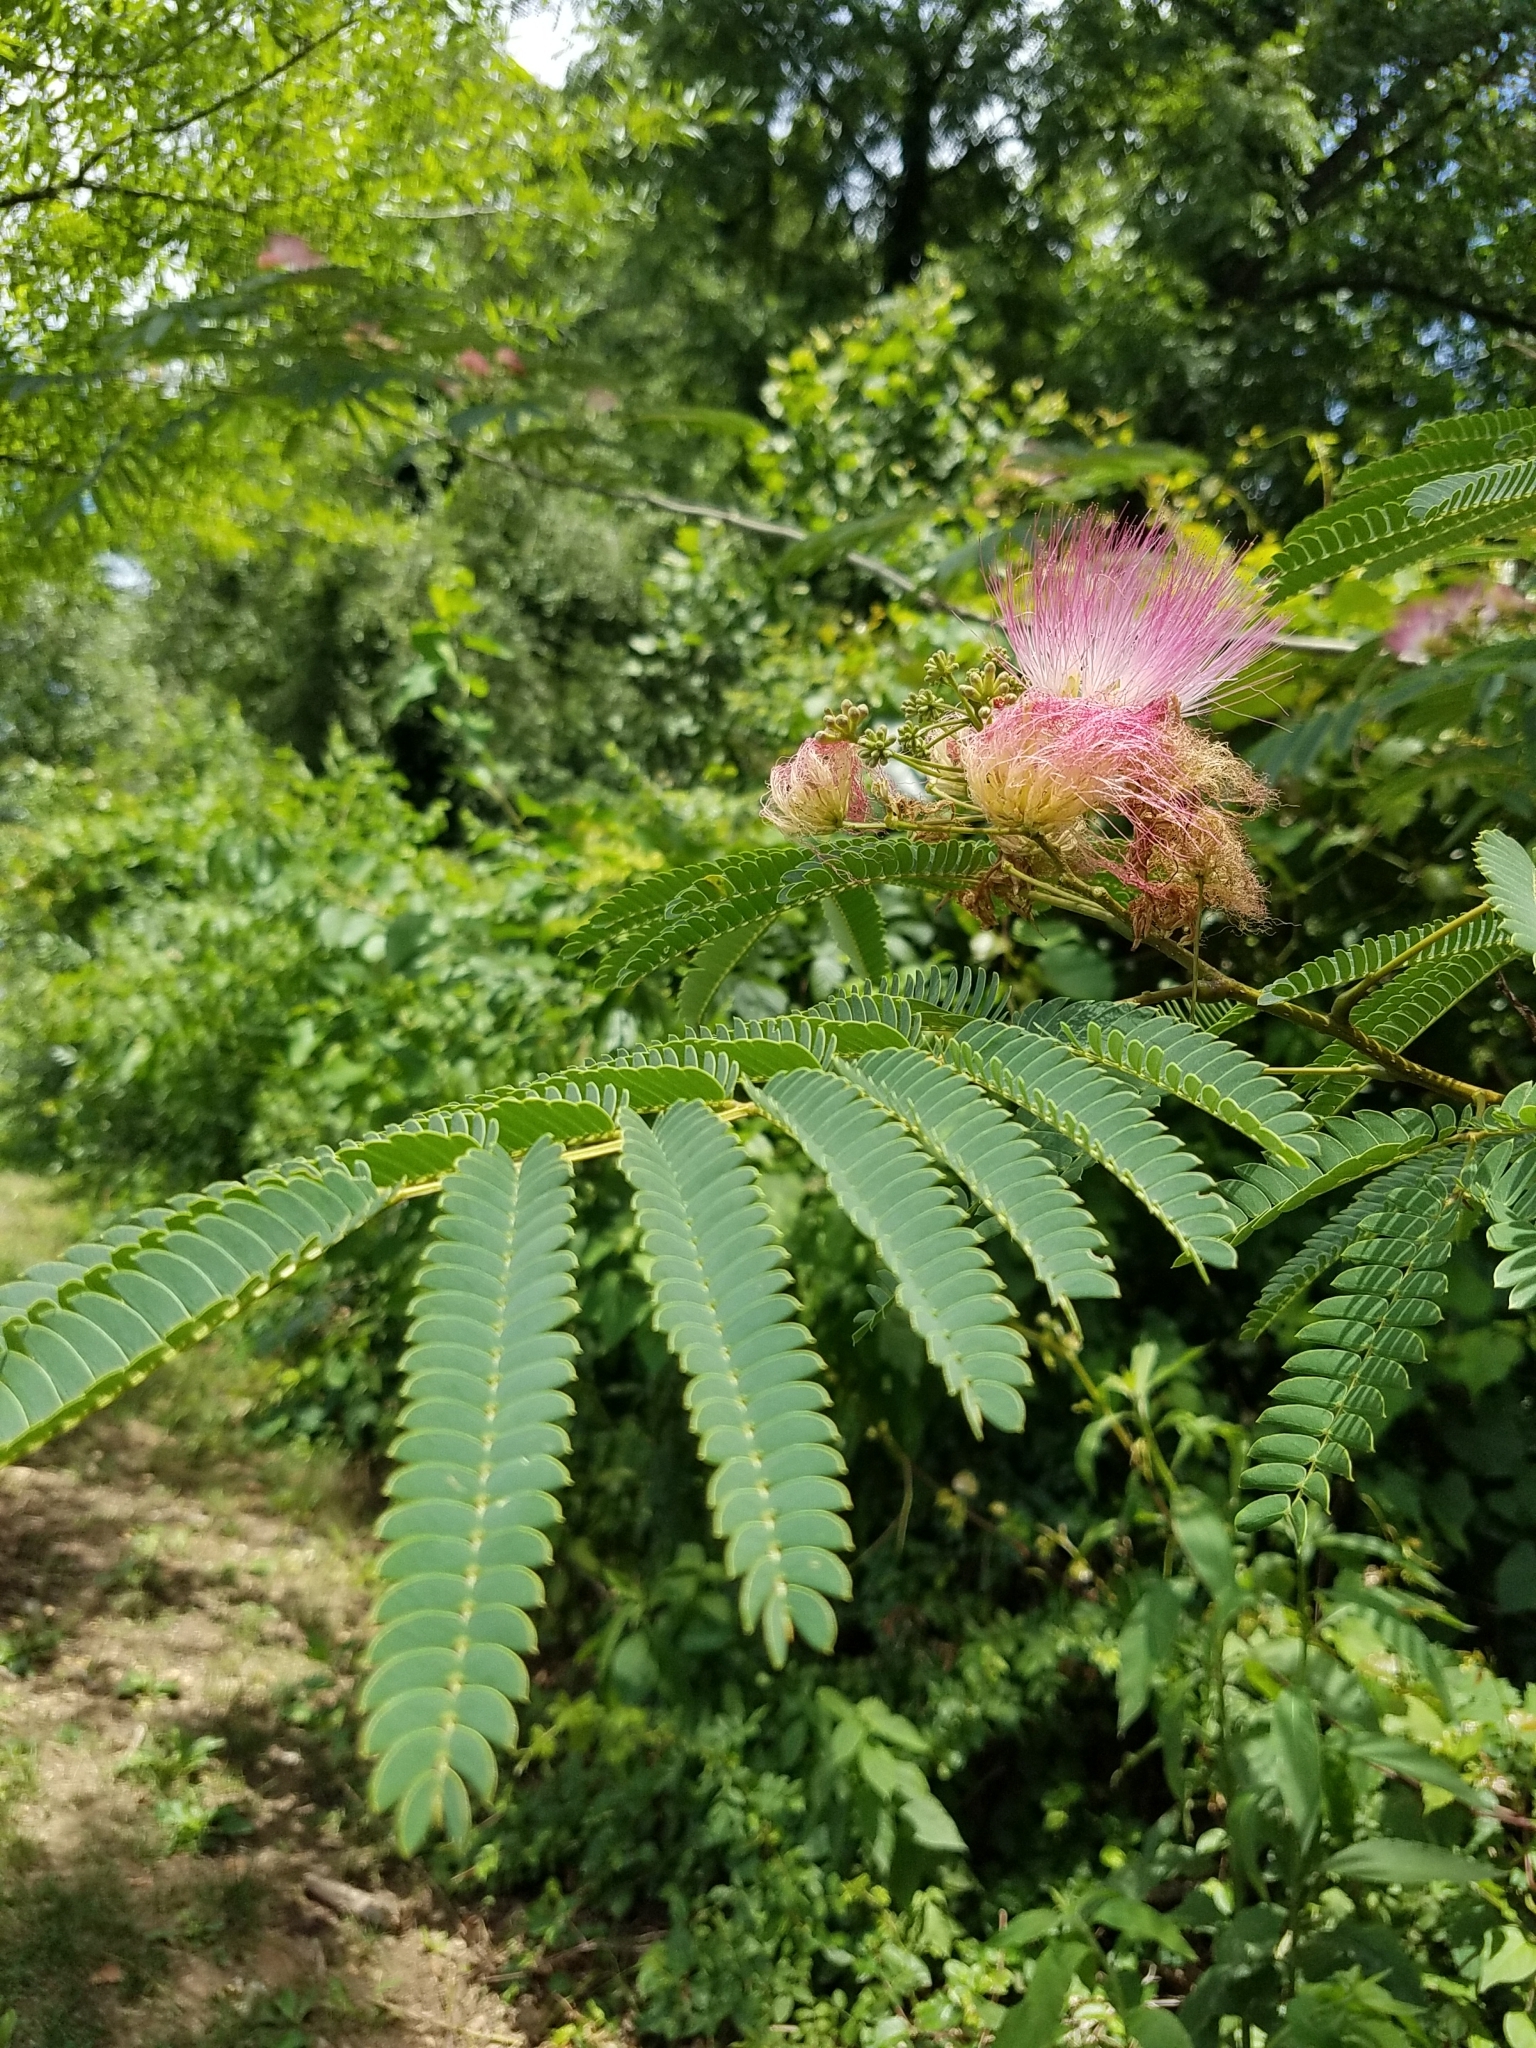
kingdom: Plantae
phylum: Tracheophyta
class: Magnoliopsida
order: Fabales
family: Fabaceae
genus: Albizia
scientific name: Albizia julibrissin
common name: Silktree
